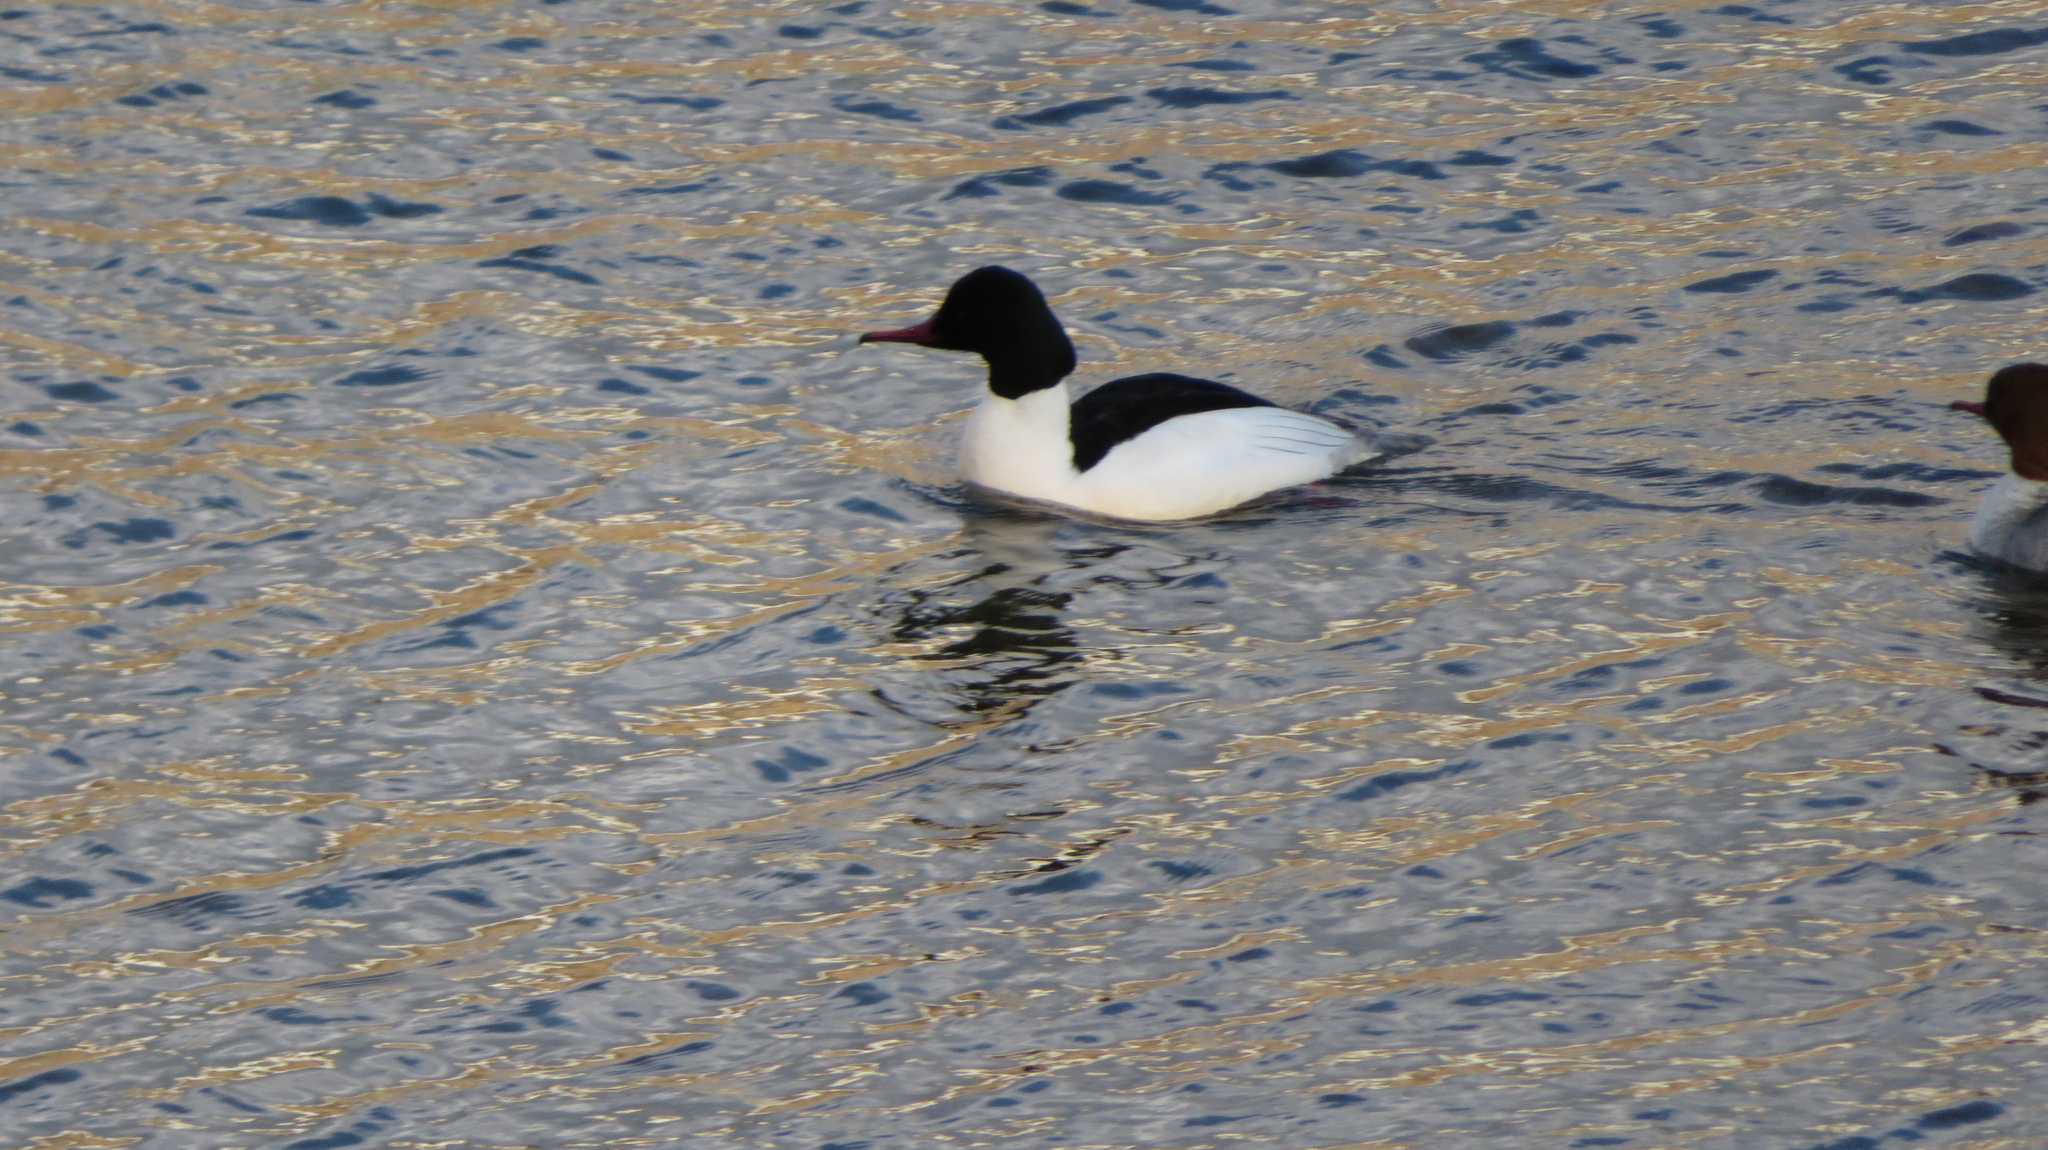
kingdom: Animalia
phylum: Chordata
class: Aves
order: Anseriformes
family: Anatidae
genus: Mergus
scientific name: Mergus merganser
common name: Common merganser
